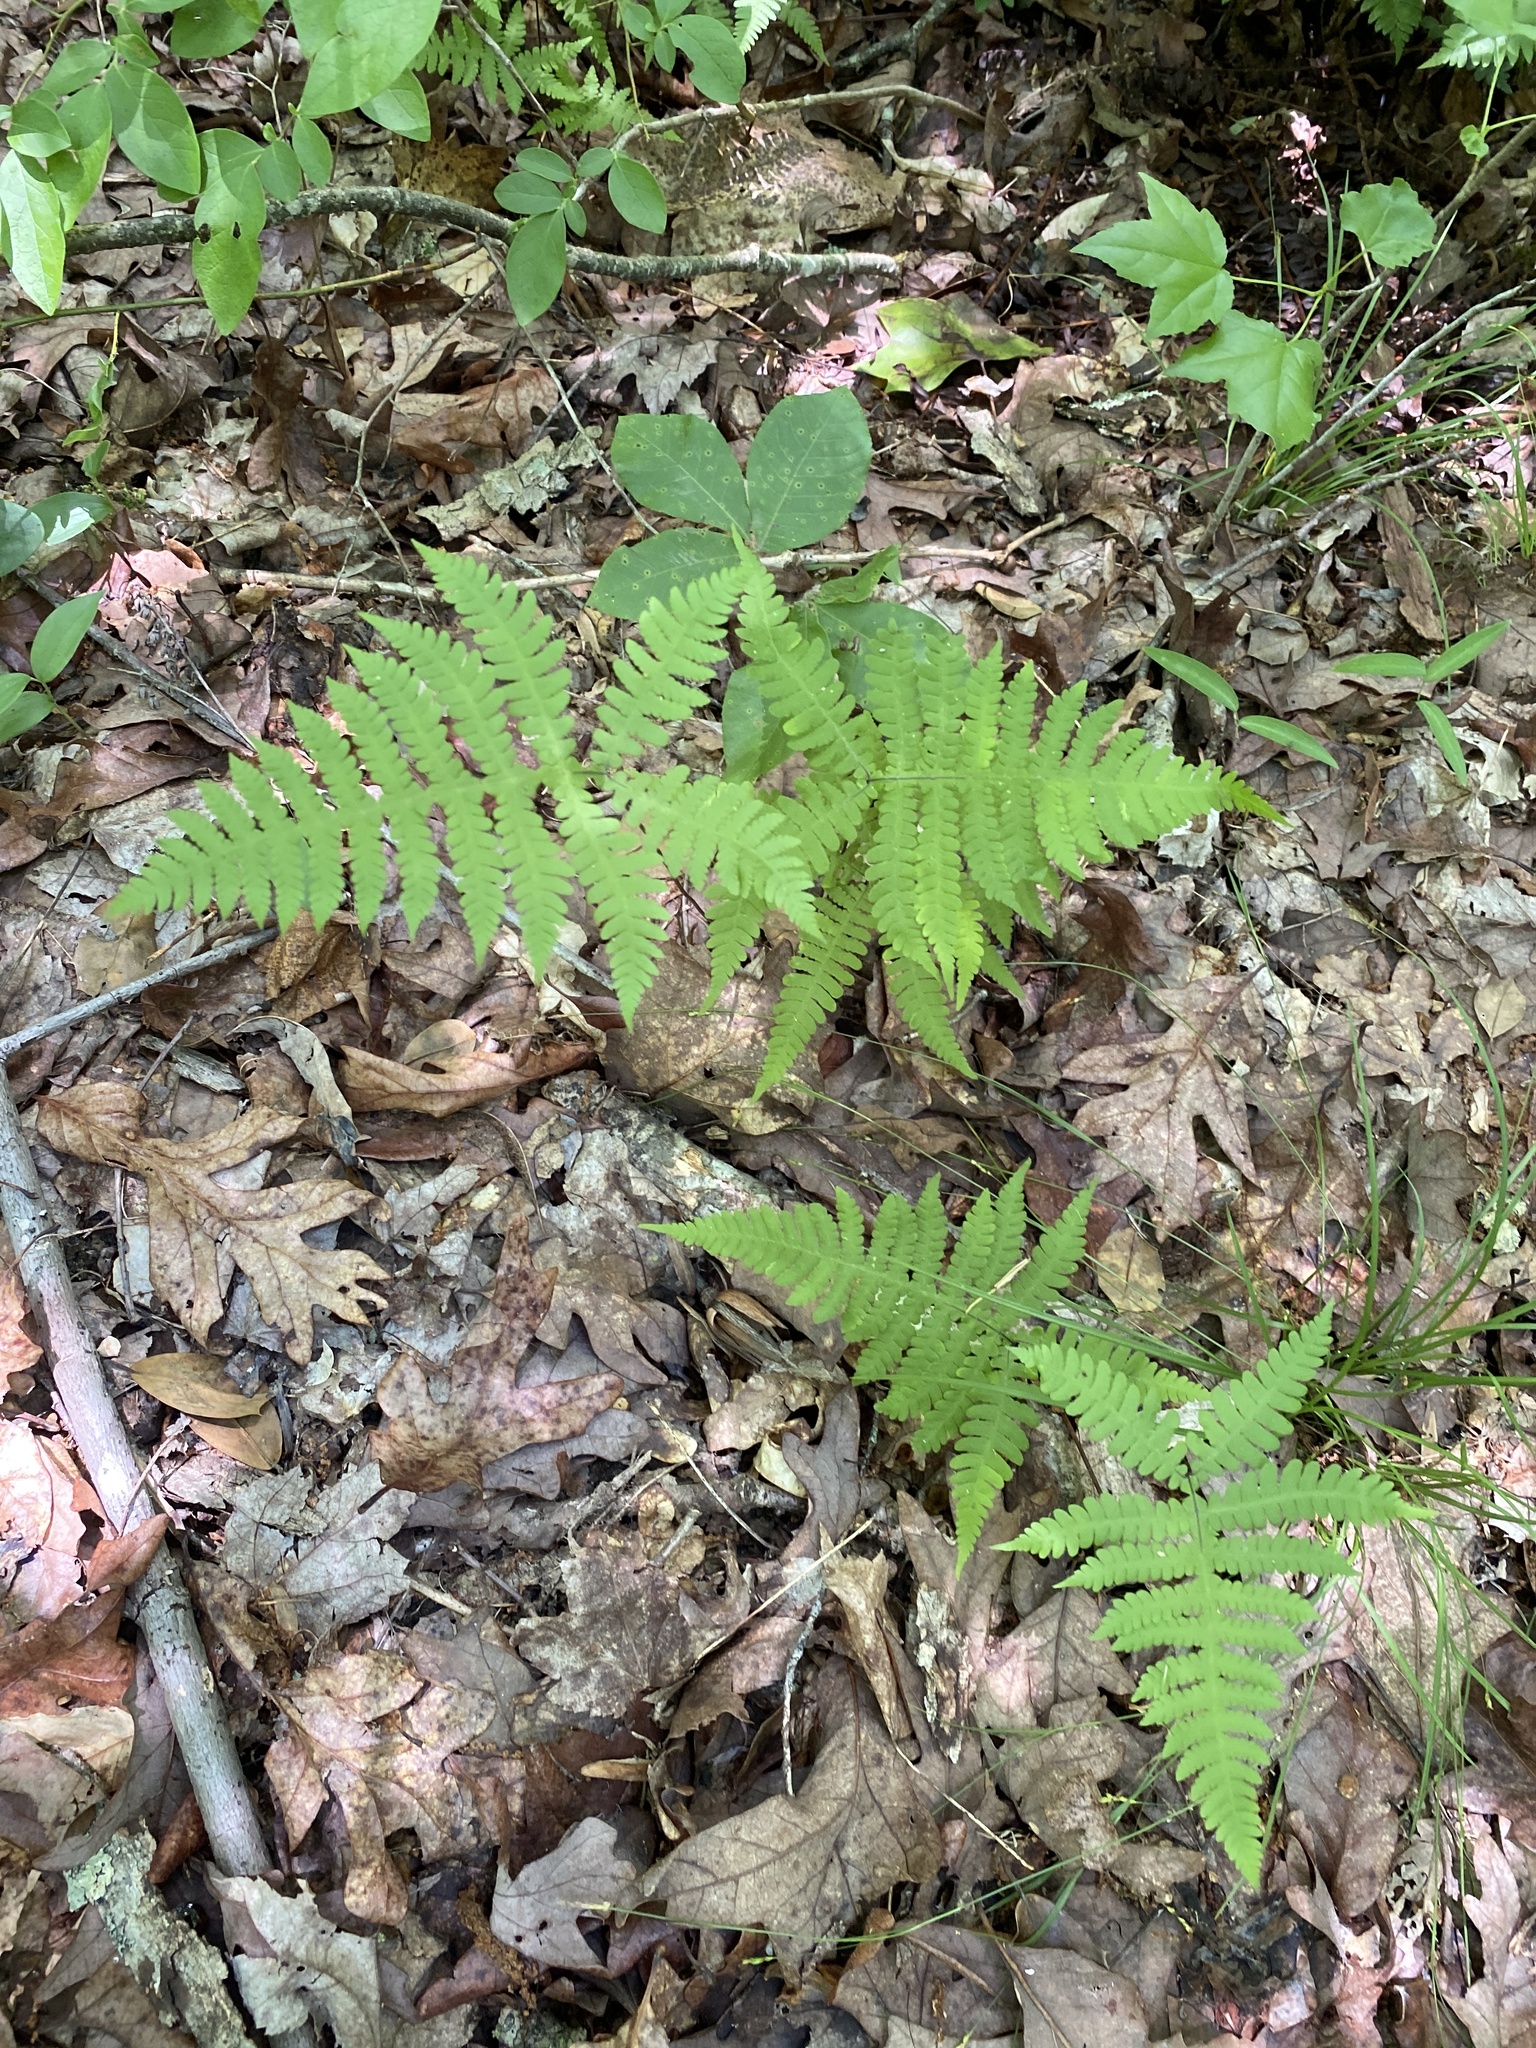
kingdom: Plantae
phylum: Tracheophyta
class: Polypodiopsida
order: Polypodiales
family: Thelypteridaceae
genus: Phegopteris
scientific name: Phegopteris hexagonoptera
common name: Broad beech fern
